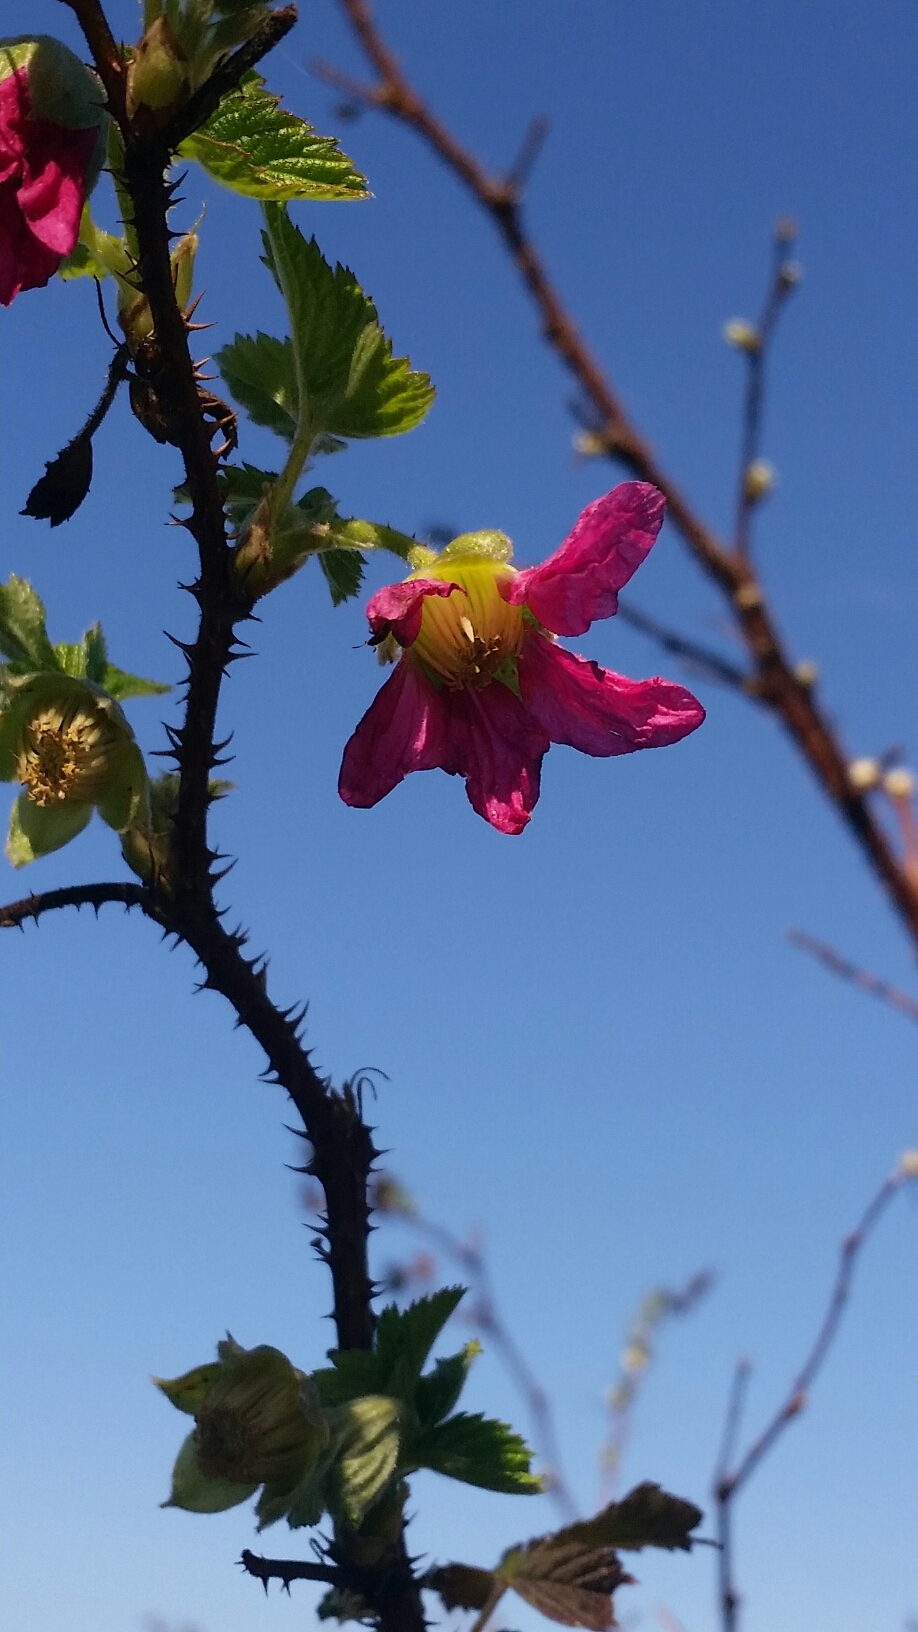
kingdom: Plantae
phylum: Tracheophyta
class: Magnoliopsida
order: Rosales
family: Rosaceae
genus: Rubus
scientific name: Rubus spectabilis
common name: Salmonberry
